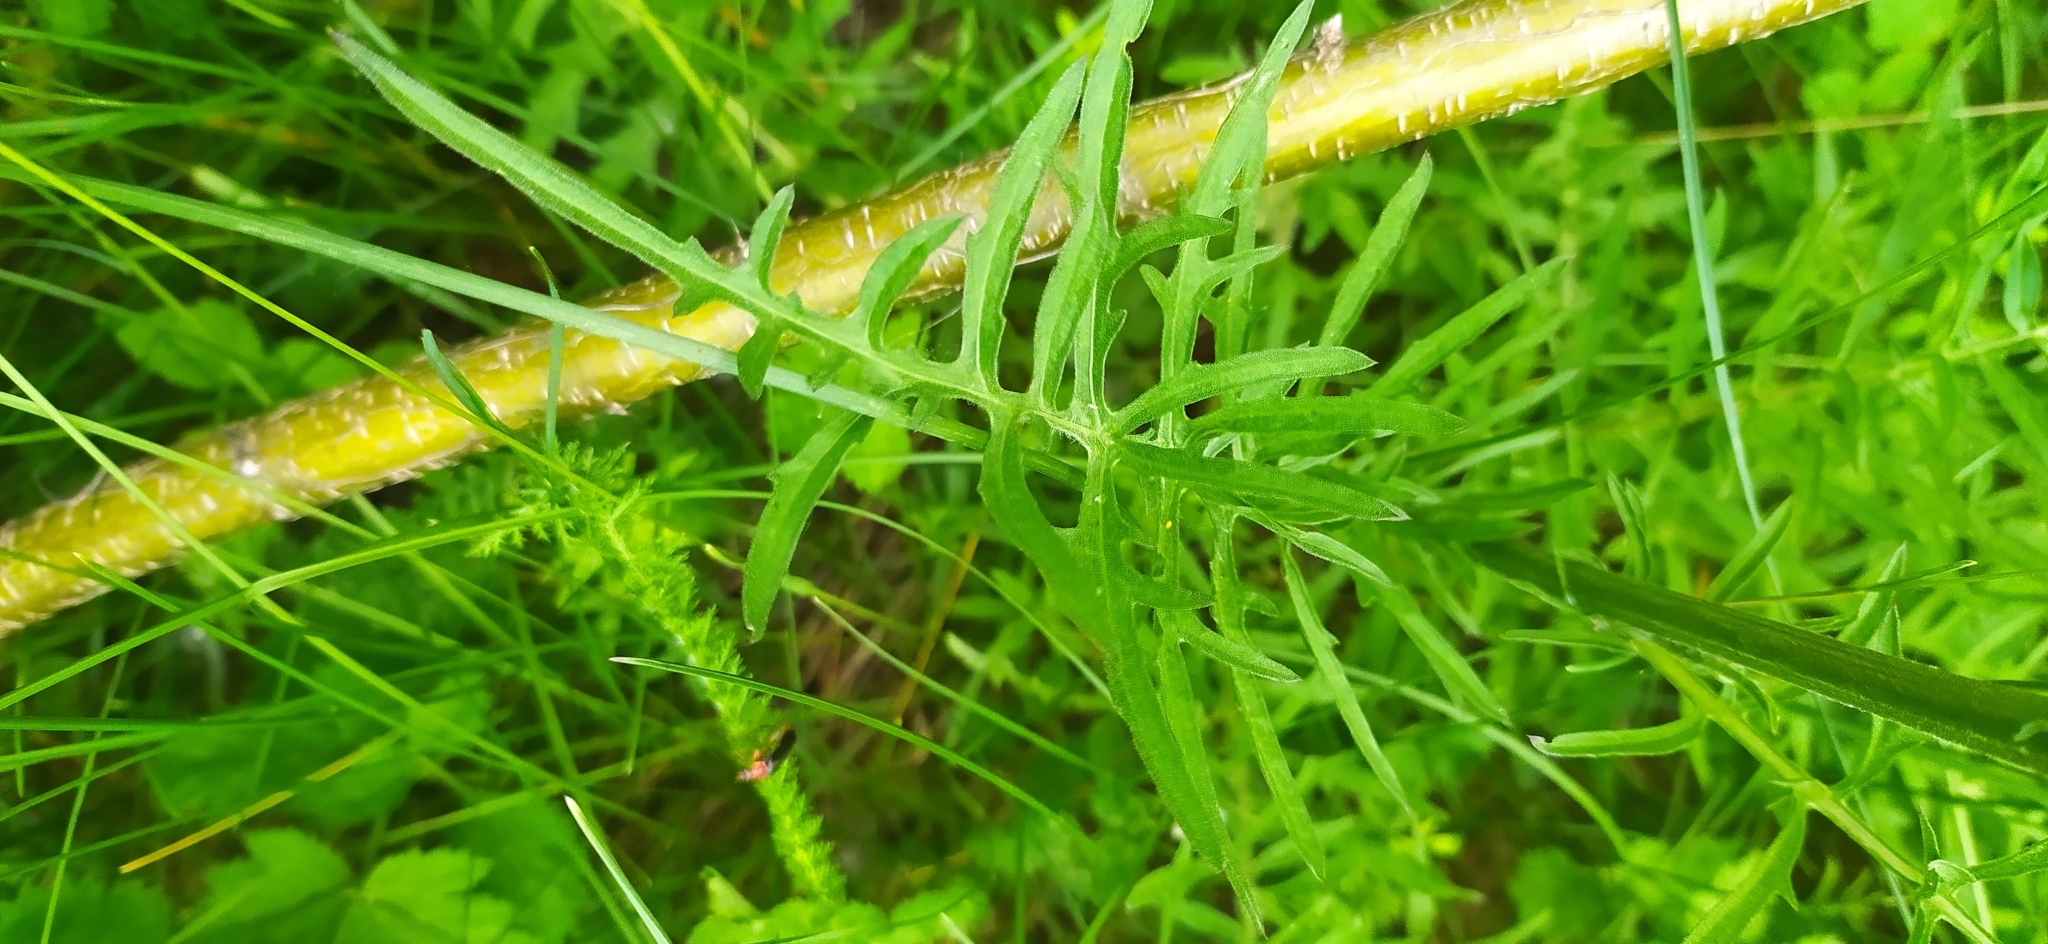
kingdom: Plantae
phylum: Tracheophyta
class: Magnoliopsida
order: Asterales
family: Asteraceae
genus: Centaurea
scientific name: Centaurea scabiosa
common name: Greater knapweed
